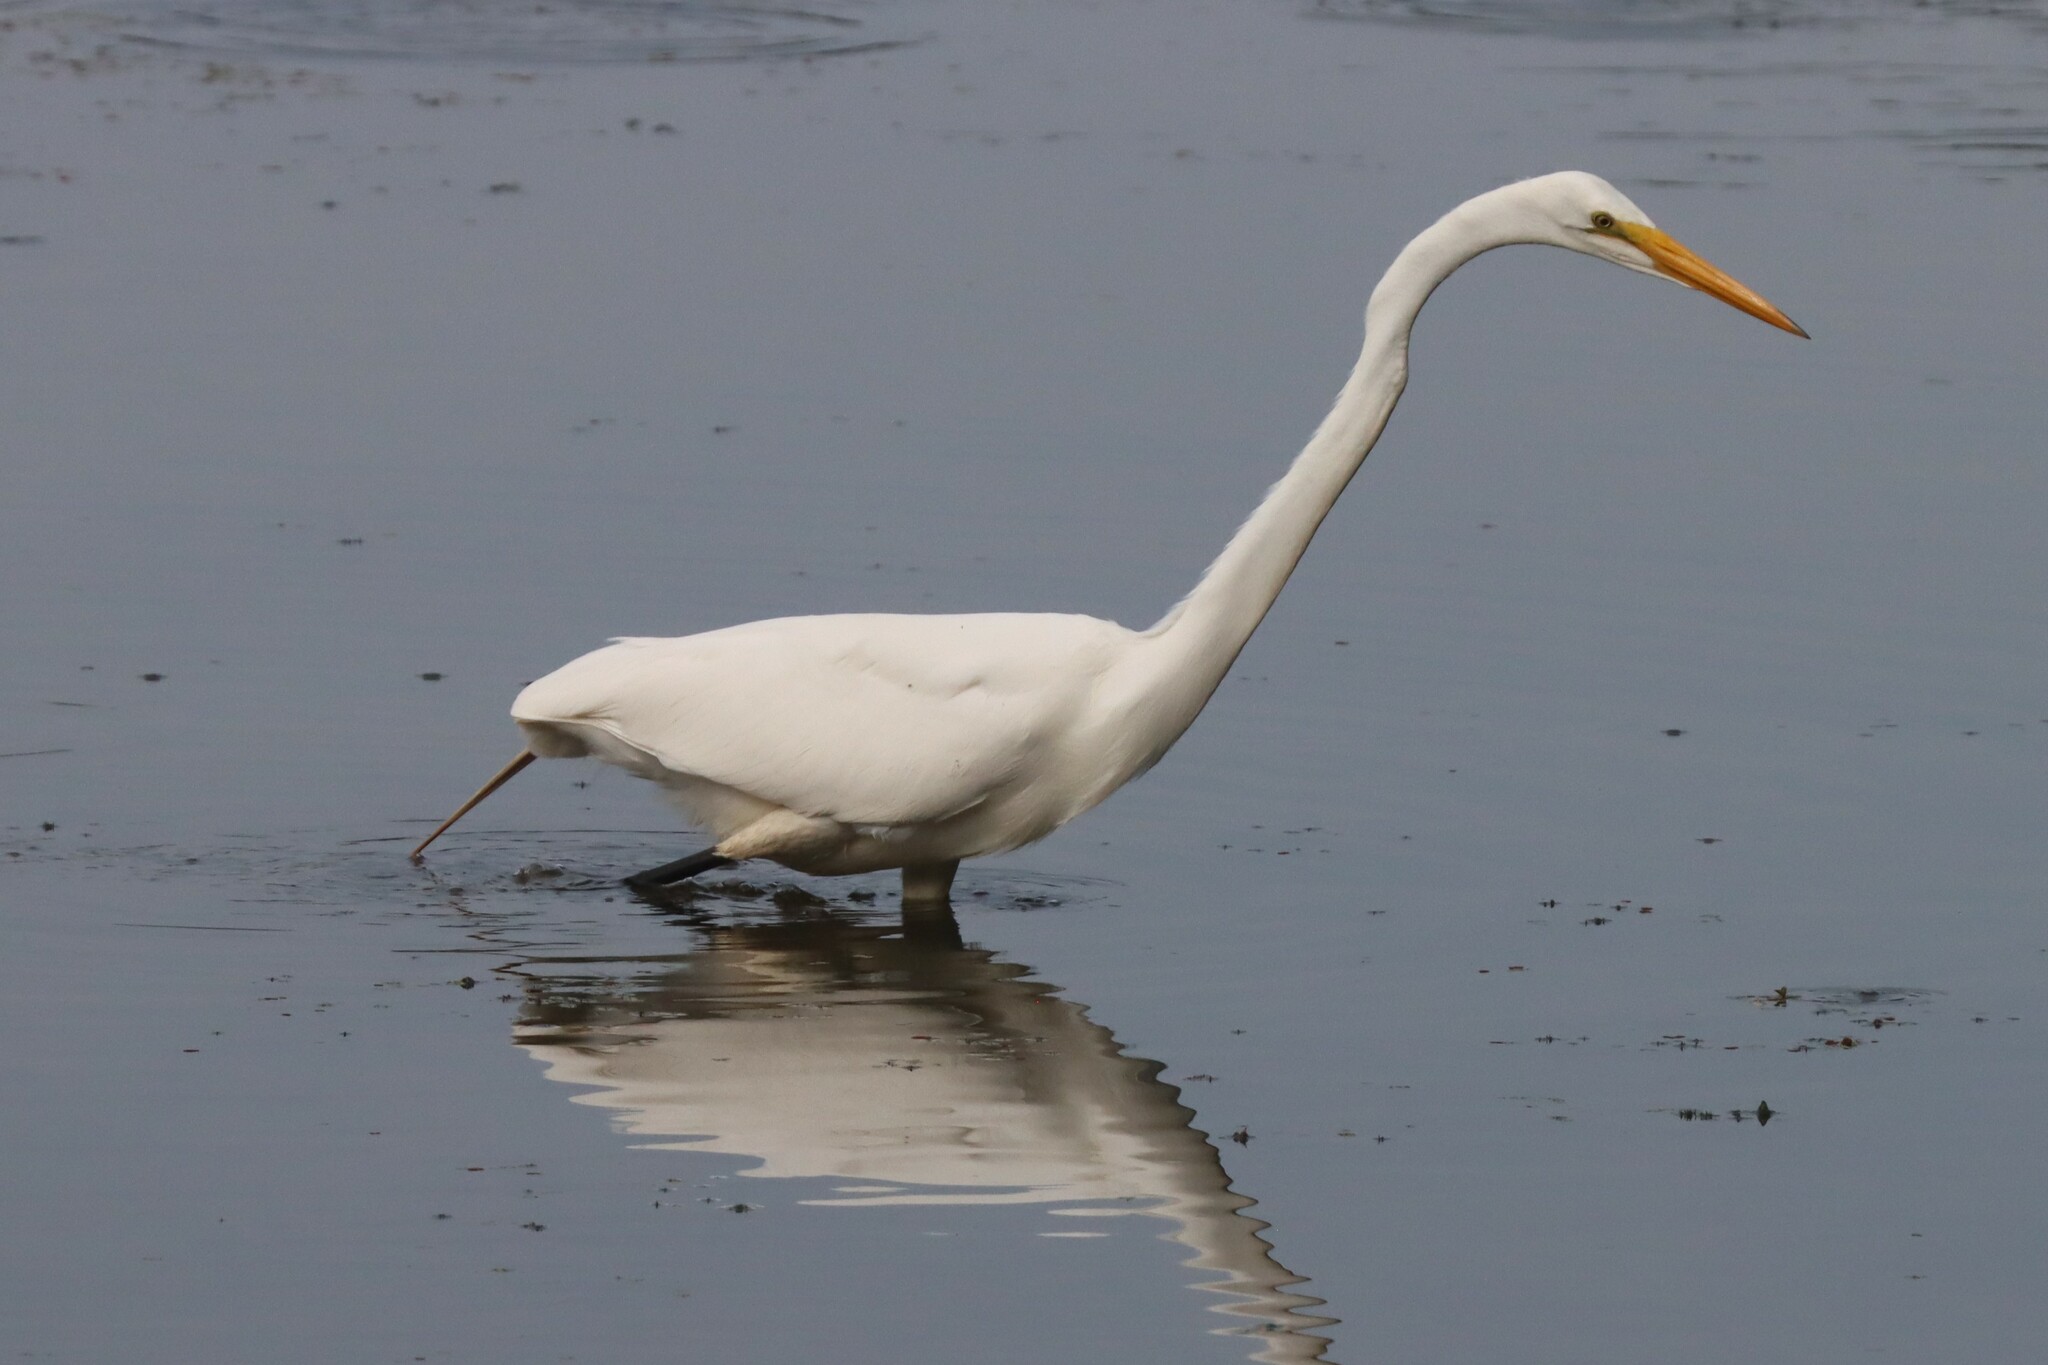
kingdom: Animalia
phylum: Chordata
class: Aves
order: Pelecaniformes
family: Ardeidae
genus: Ardea
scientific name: Ardea alba
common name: Great egret
